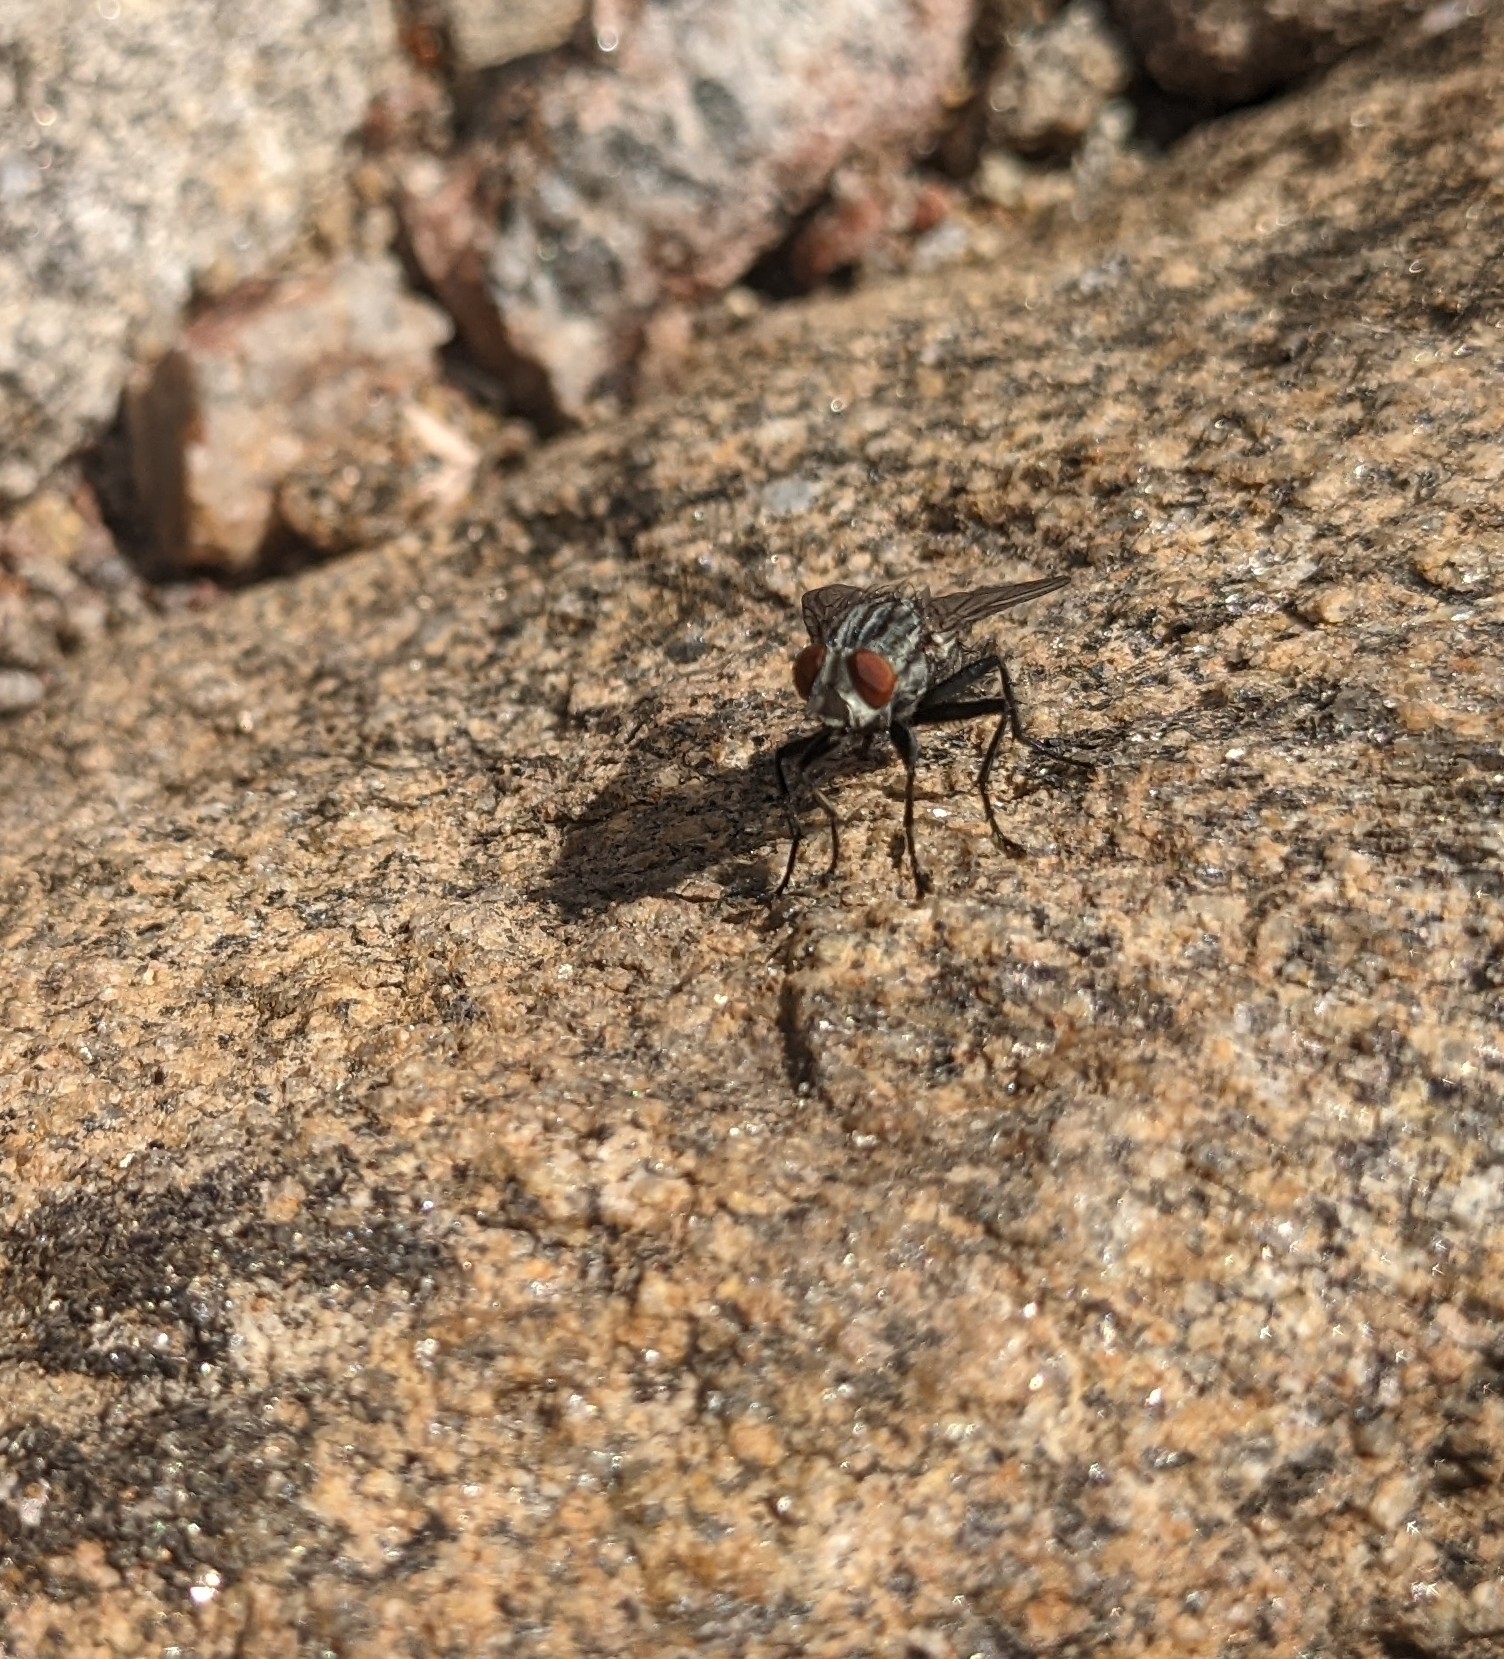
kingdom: Animalia
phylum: Arthropoda
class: Insecta
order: Diptera
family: Sarcophagidae
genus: Sarcophaga
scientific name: Sarcophaga
